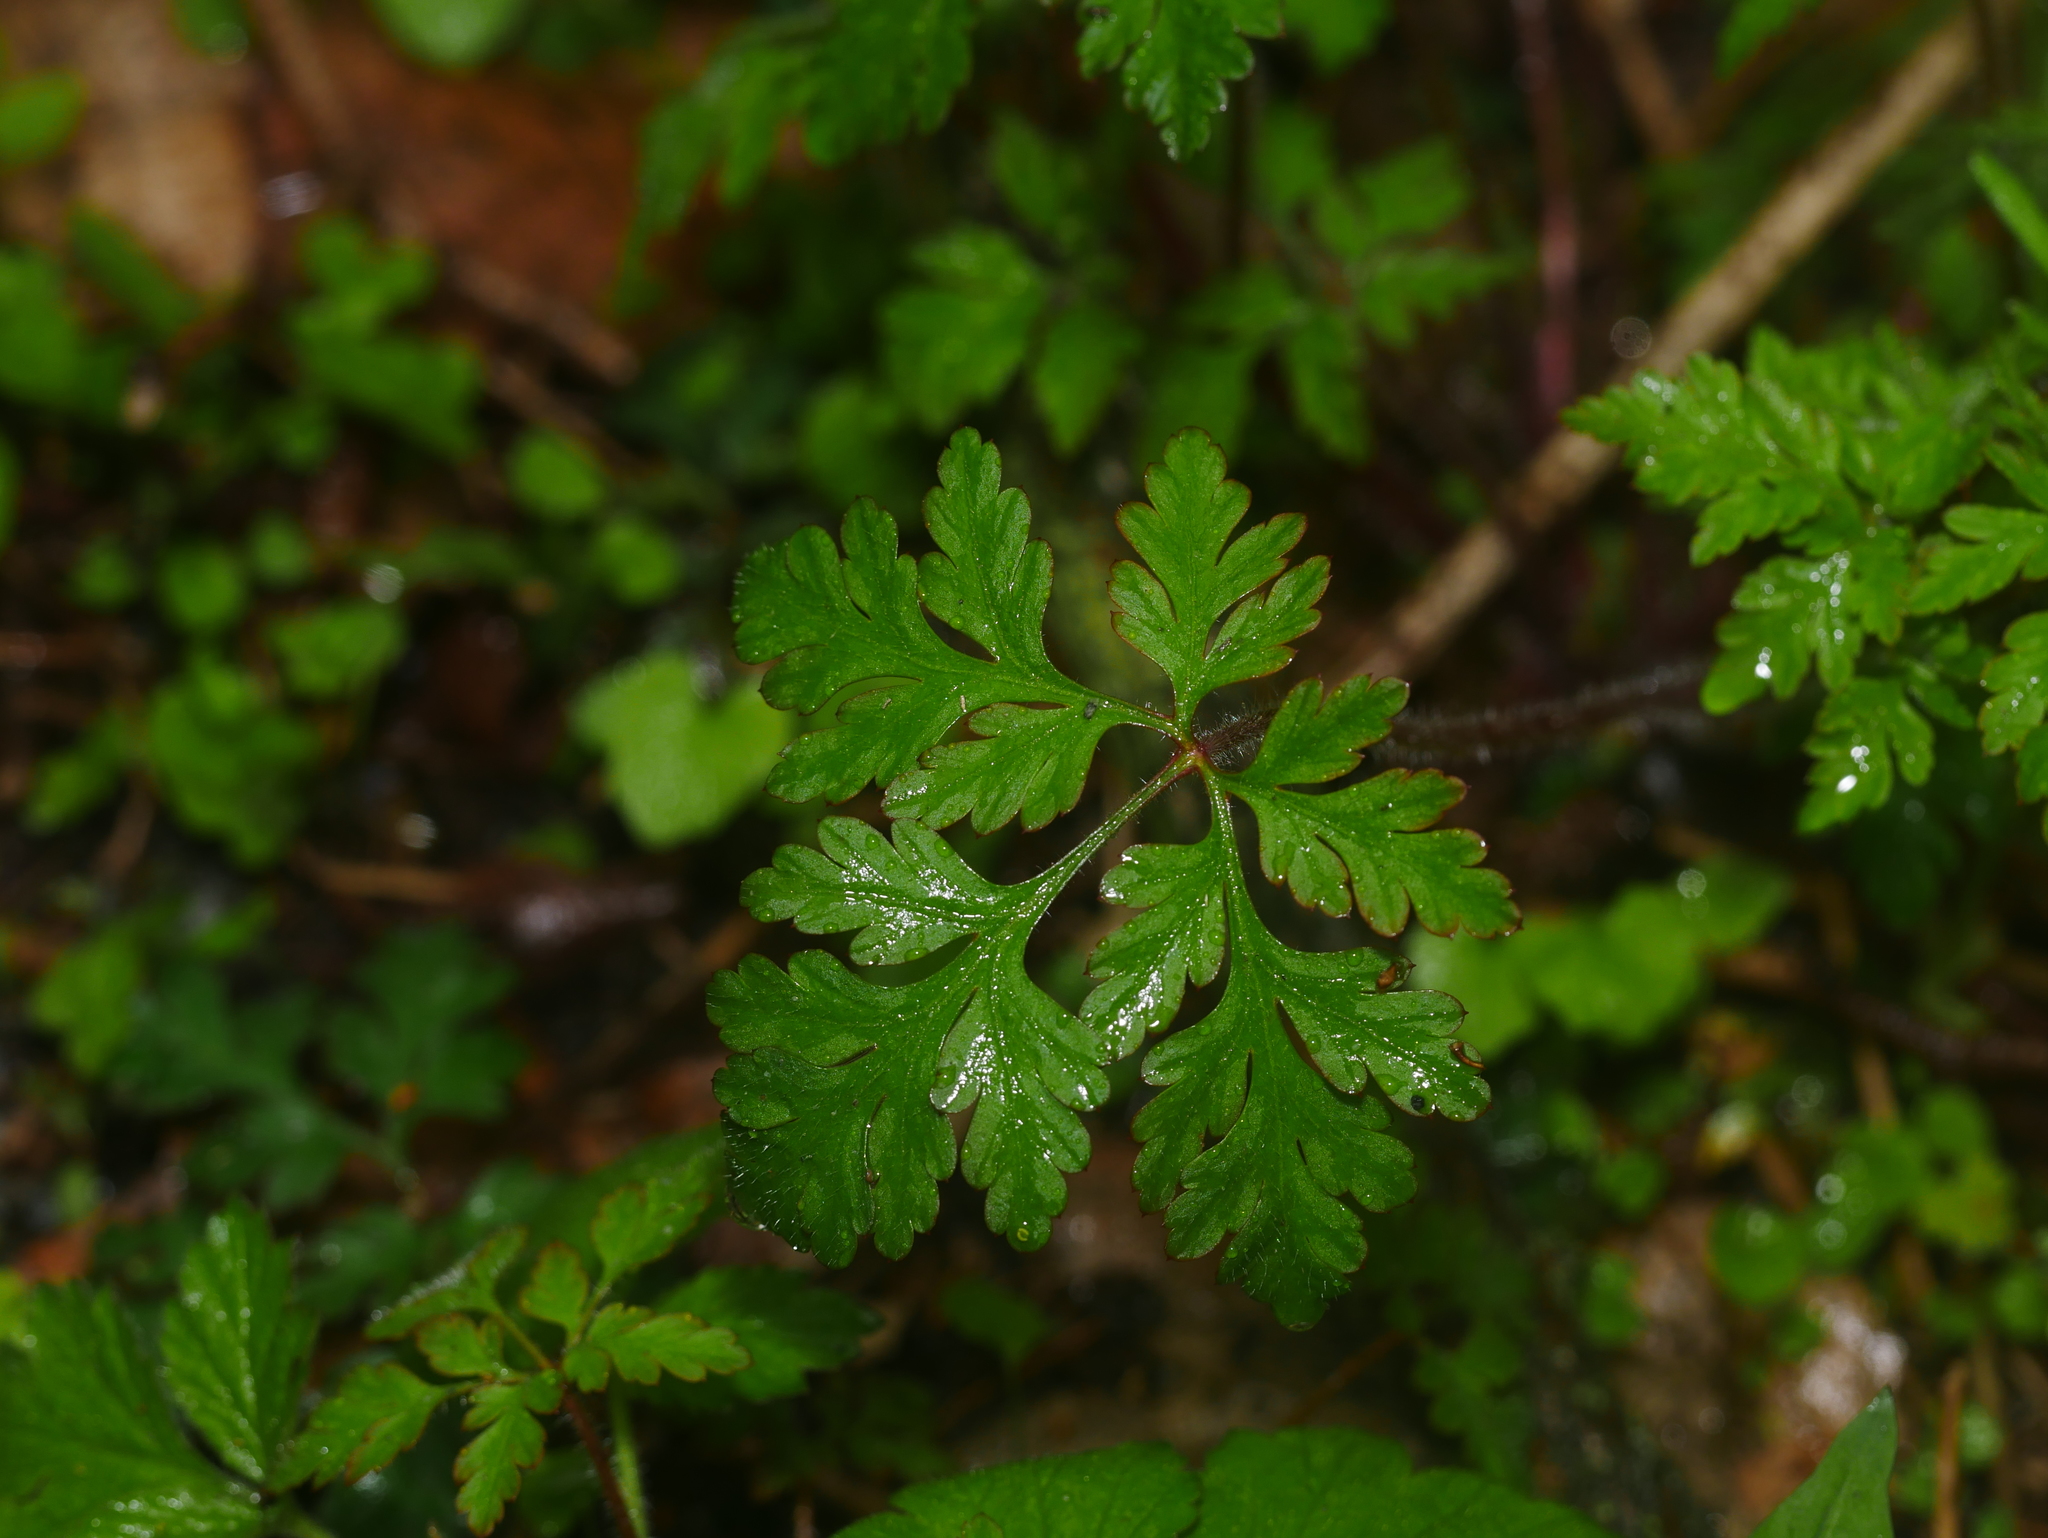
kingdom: Plantae
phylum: Tracheophyta
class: Magnoliopsida
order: Geraniales
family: Geraniaceae
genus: Geranium
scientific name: Geranium robertianum
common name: Herb-robert
